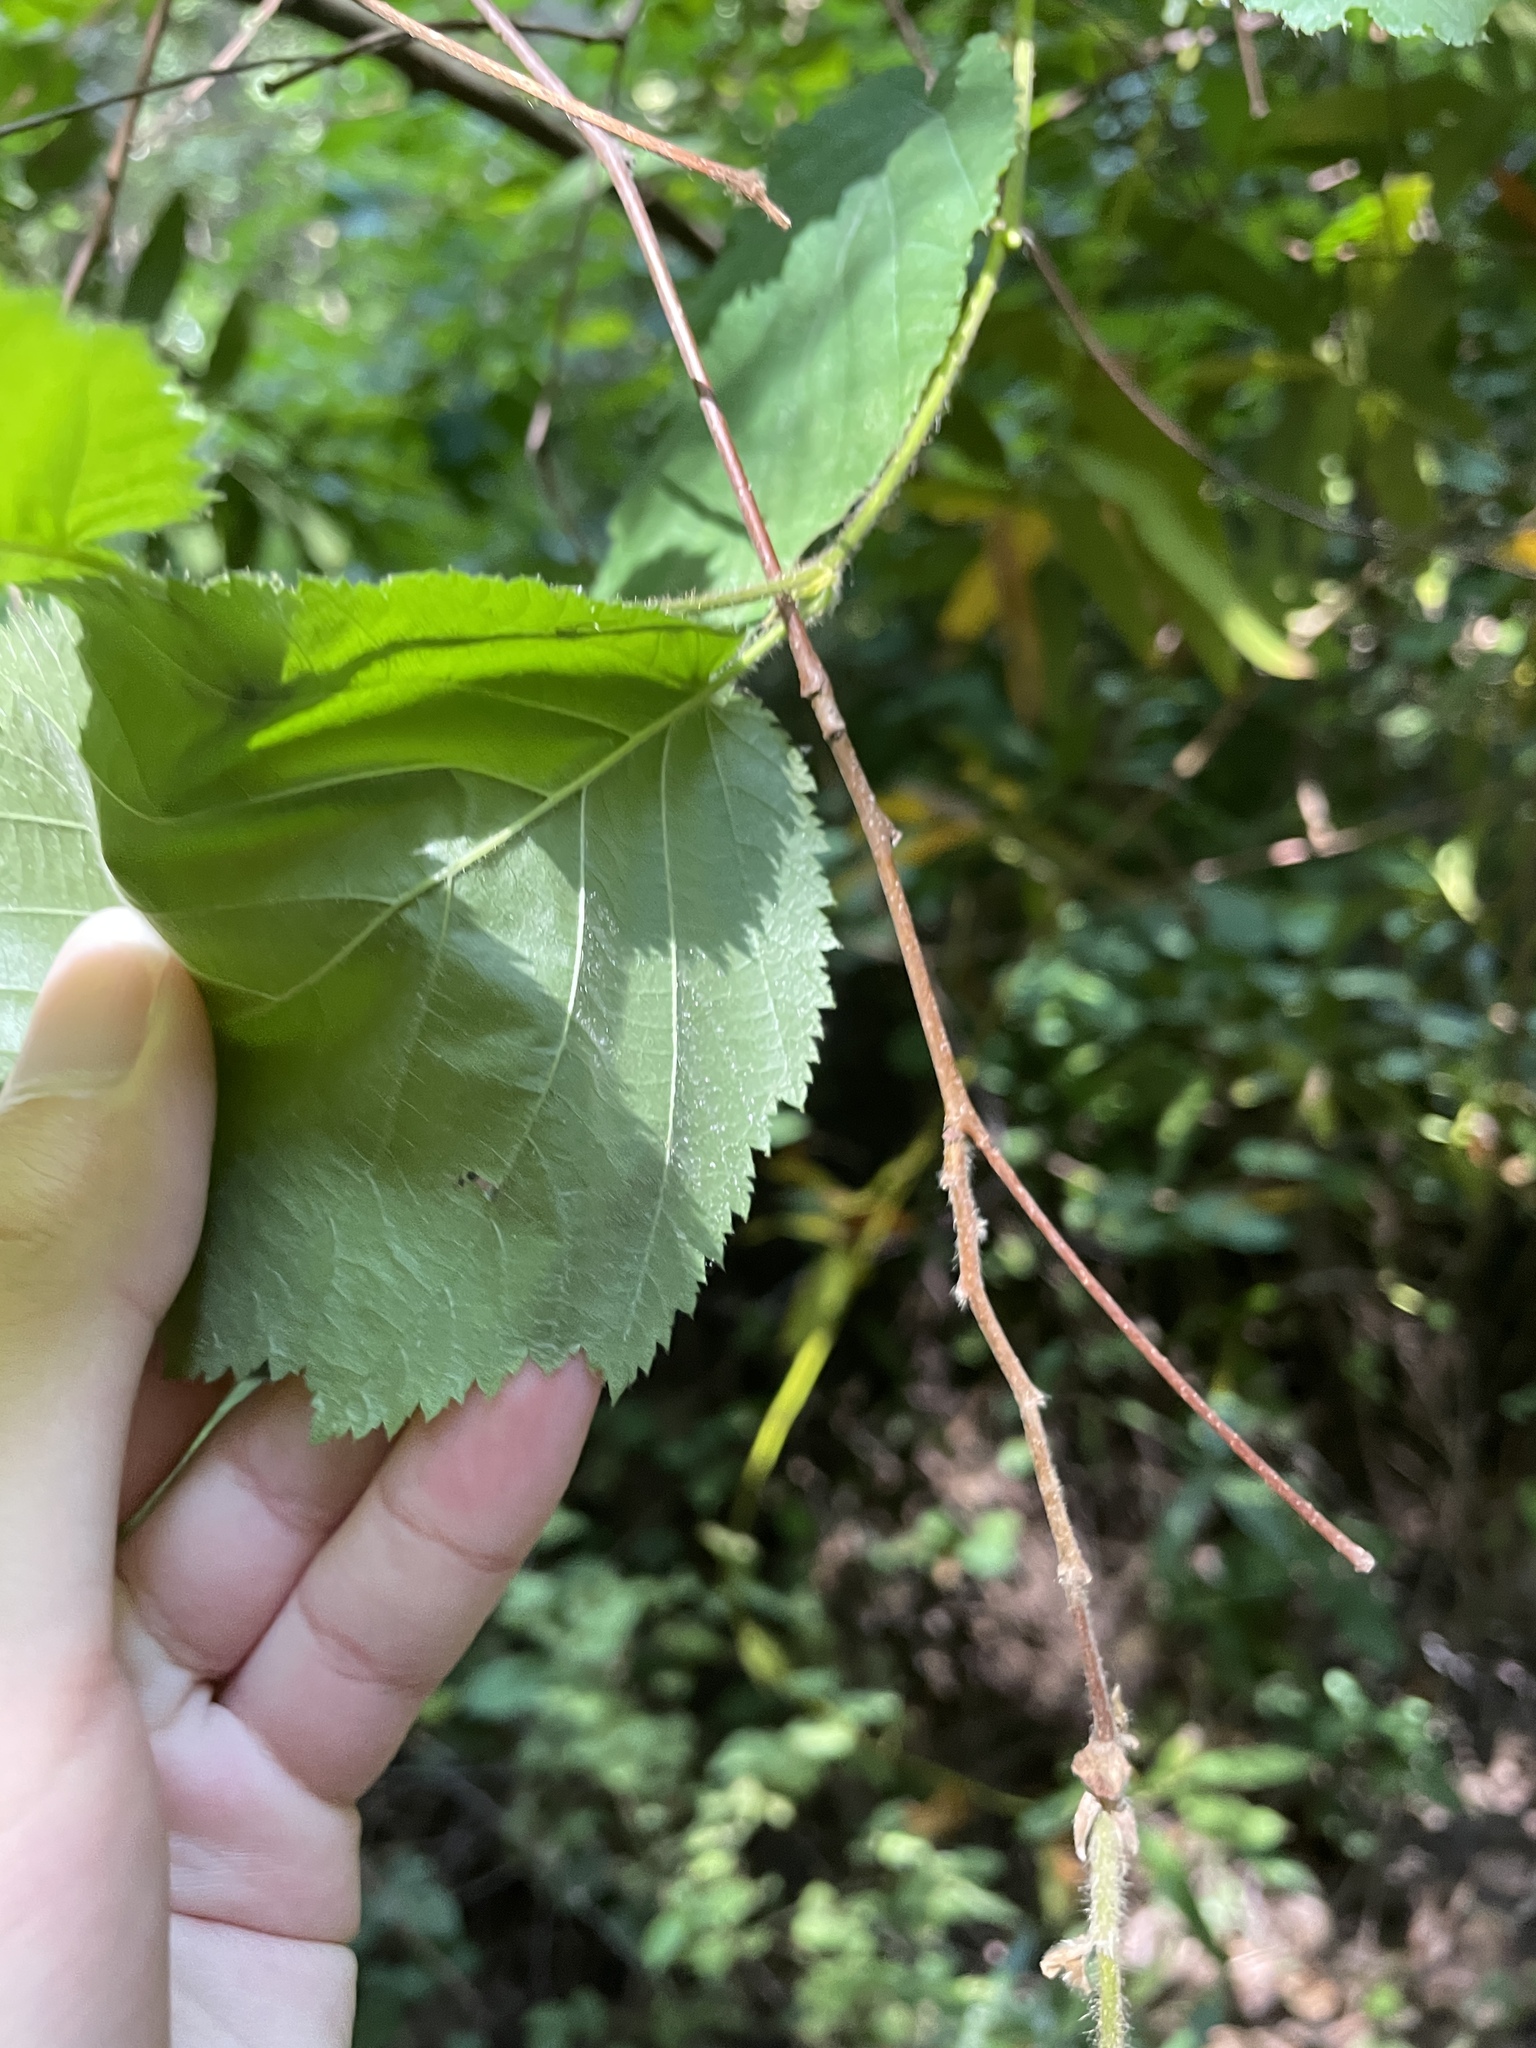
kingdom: Plantae
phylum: Tracheophyta
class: Magnoliopsida
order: Fagales
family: Betulaceae
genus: Corylus
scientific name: Corylus cornuta
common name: Beaked hazel
